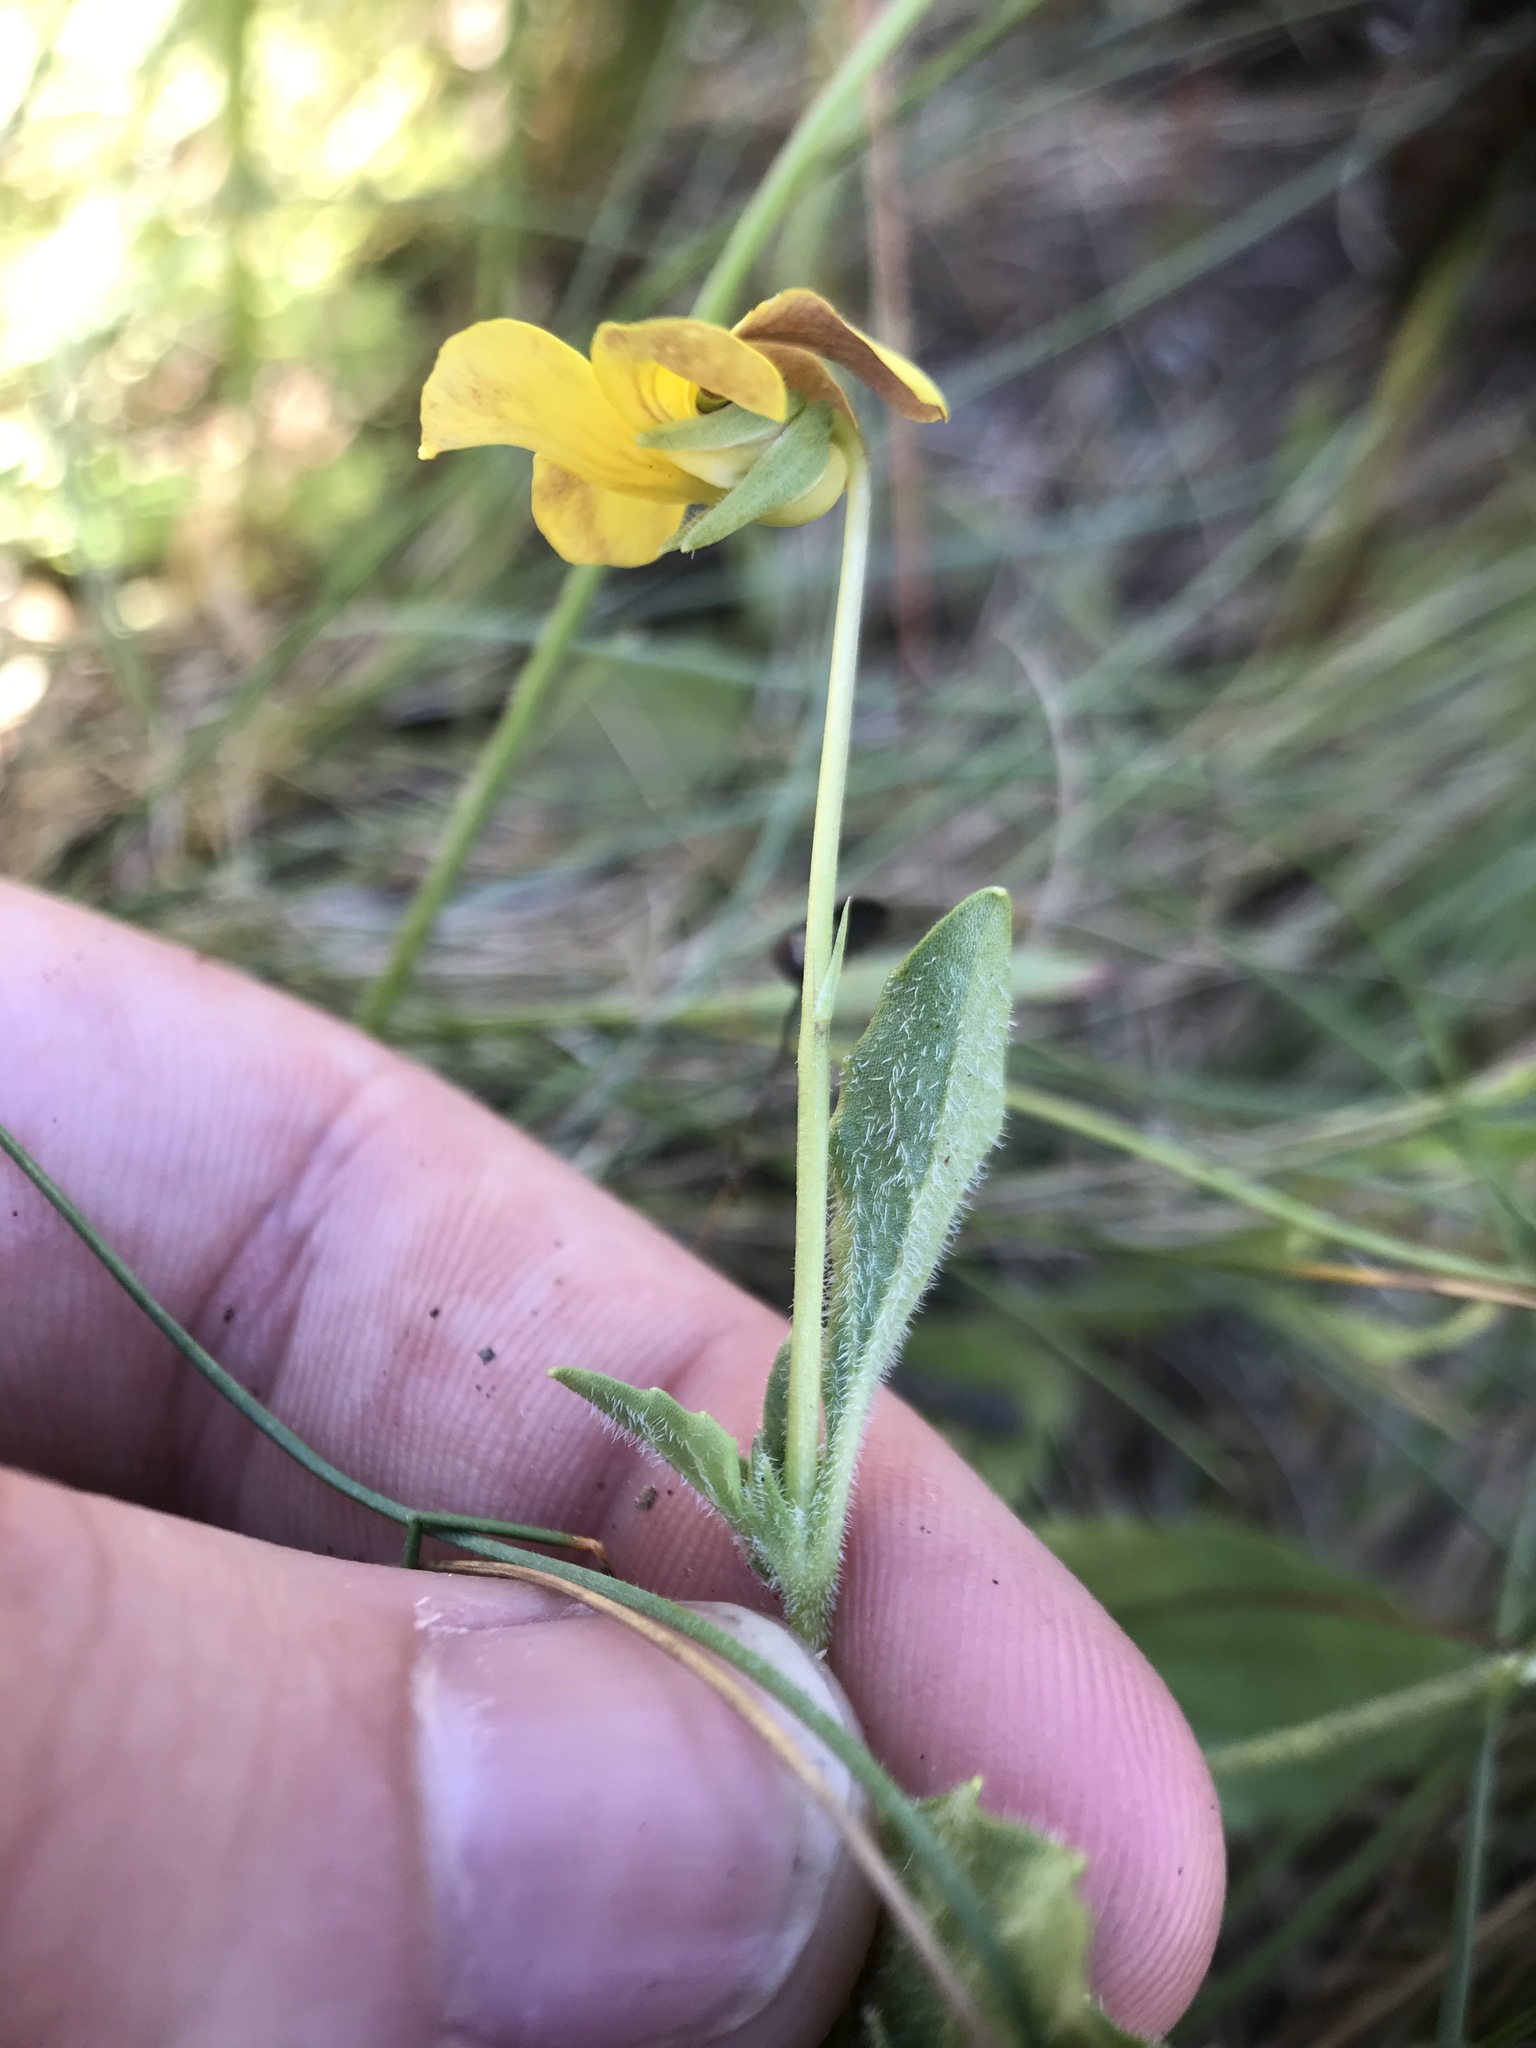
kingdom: Plantae
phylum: Tracheophyta
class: Magnoliopsida
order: Malpighiales
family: Violaceae
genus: Viola
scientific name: Viola purpurea
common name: Pine violet
